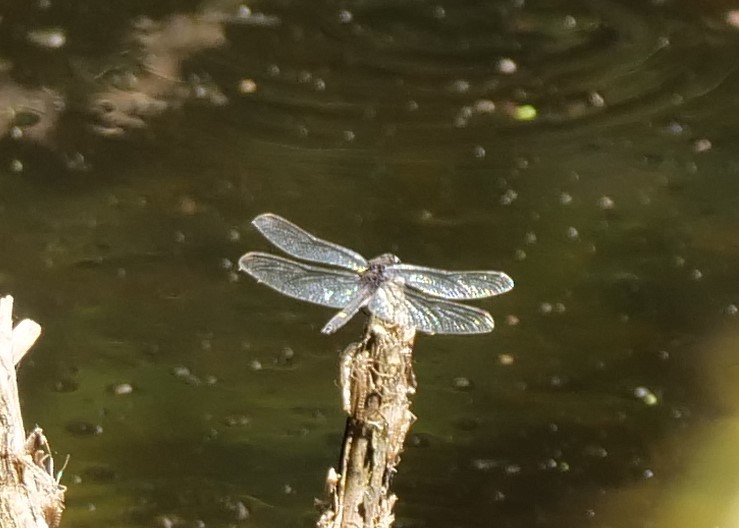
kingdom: Animalia
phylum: Arthropoda
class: Insecta
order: Odonata
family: Libellulidae
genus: Leucorrhinia
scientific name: Leucorrhinia intacta
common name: Dot-tailed whiteface
